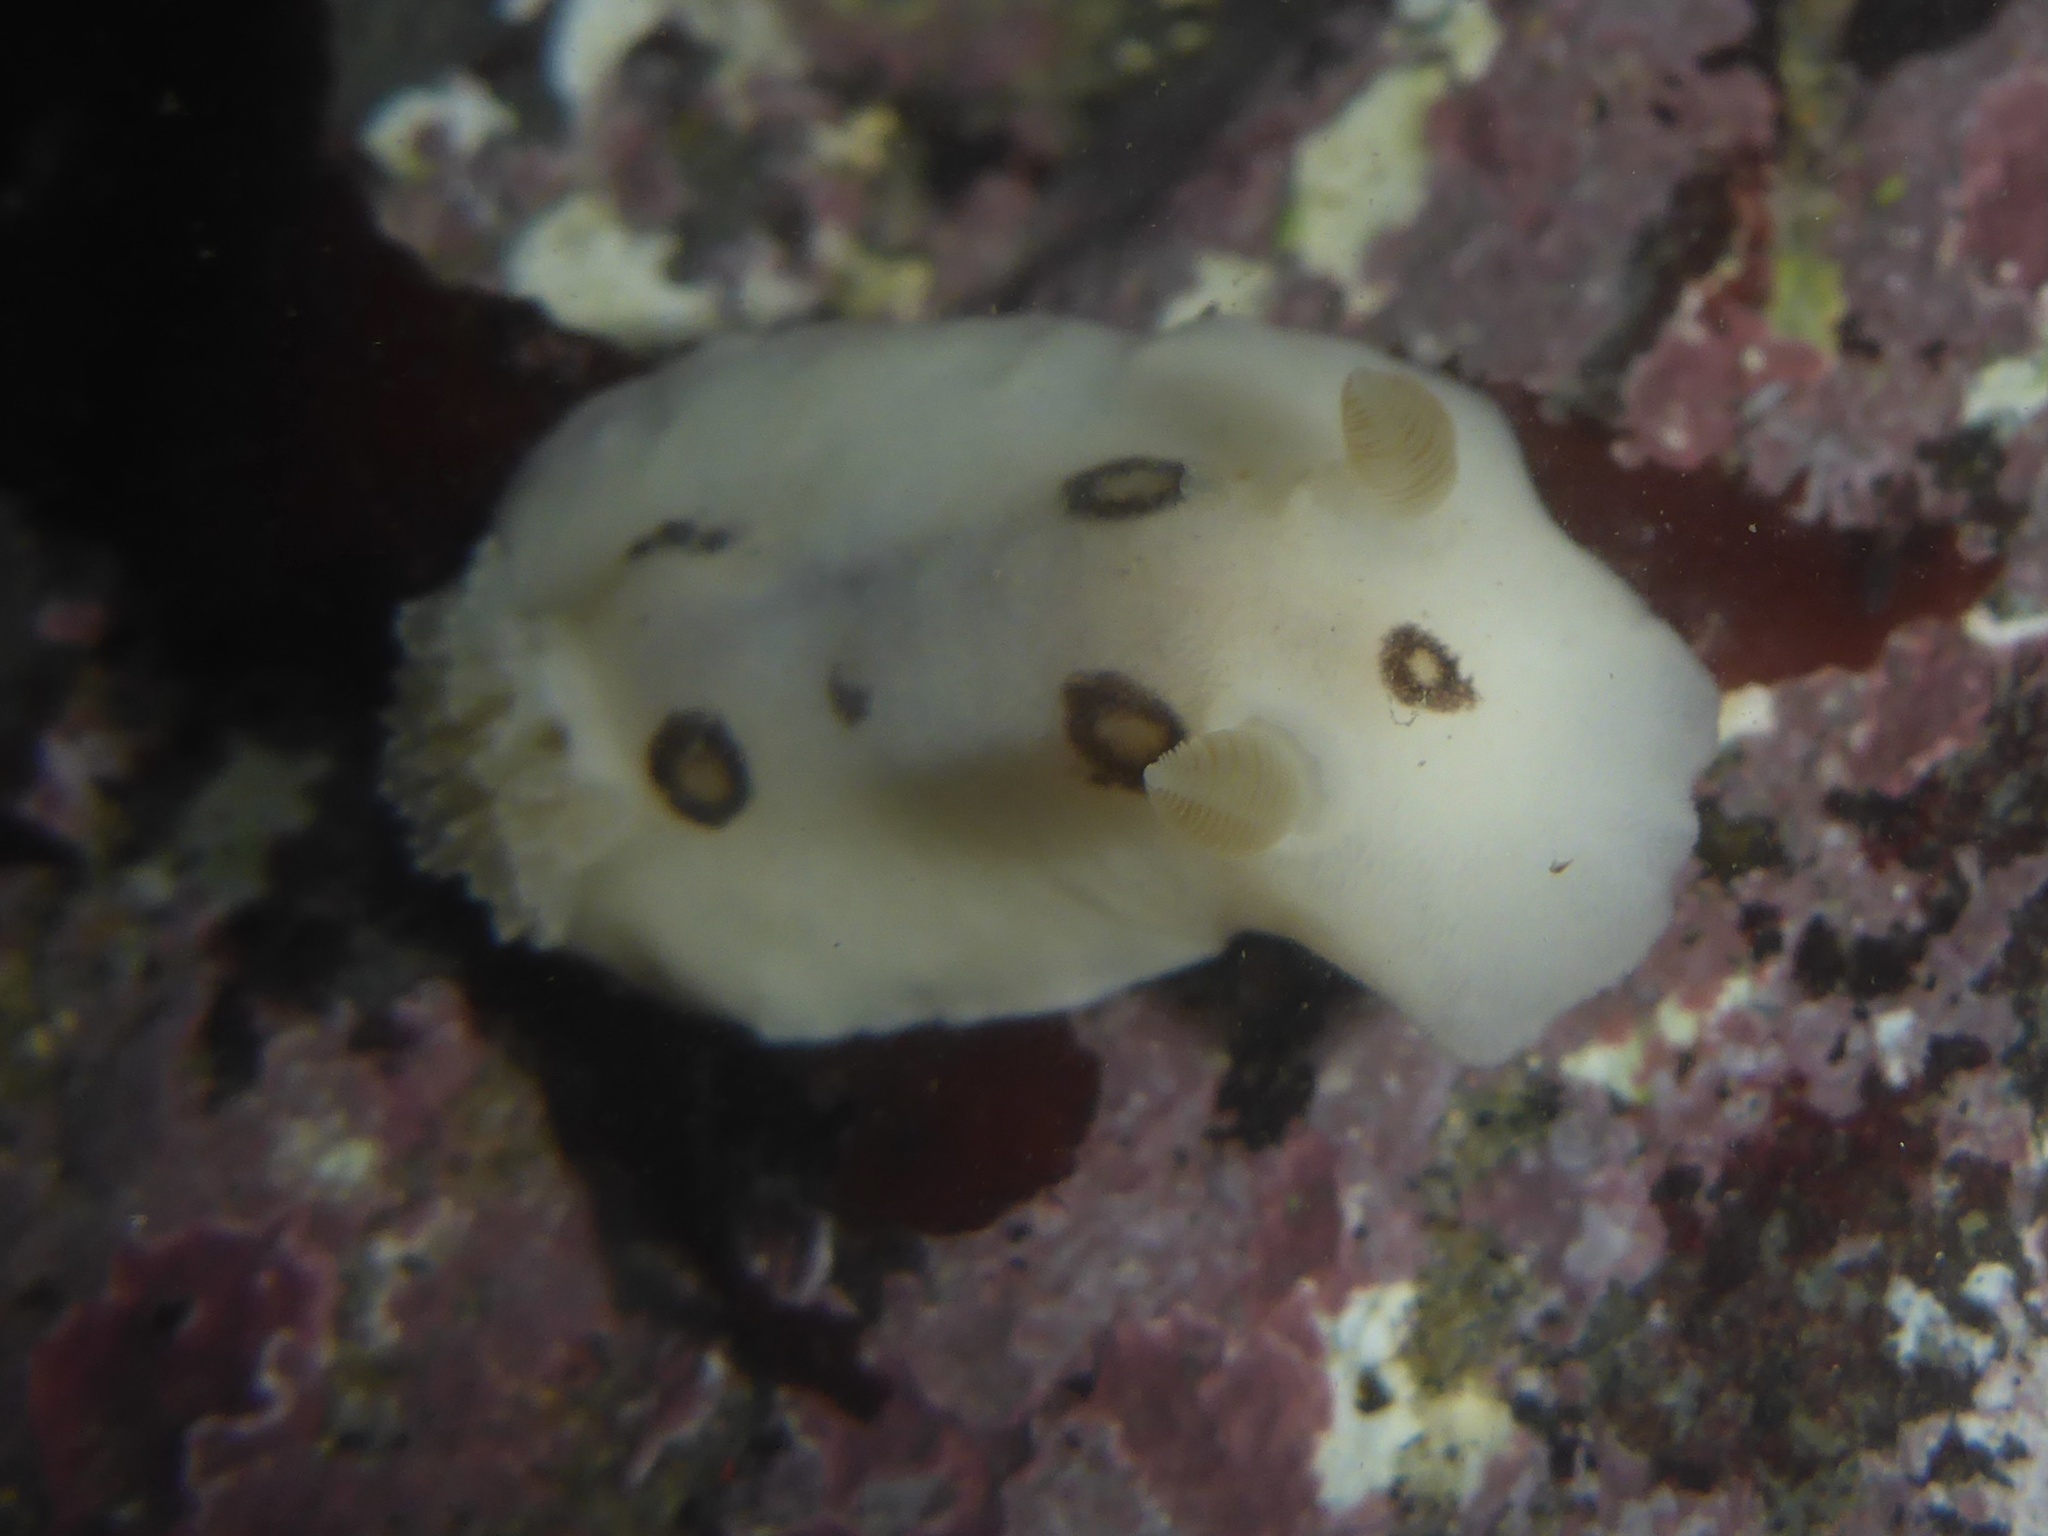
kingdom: Animalia
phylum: Mollusca
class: Gastropoda
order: Nudibranchia
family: Discodorididae
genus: Diaulula
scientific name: Diaulula sandiegensis
